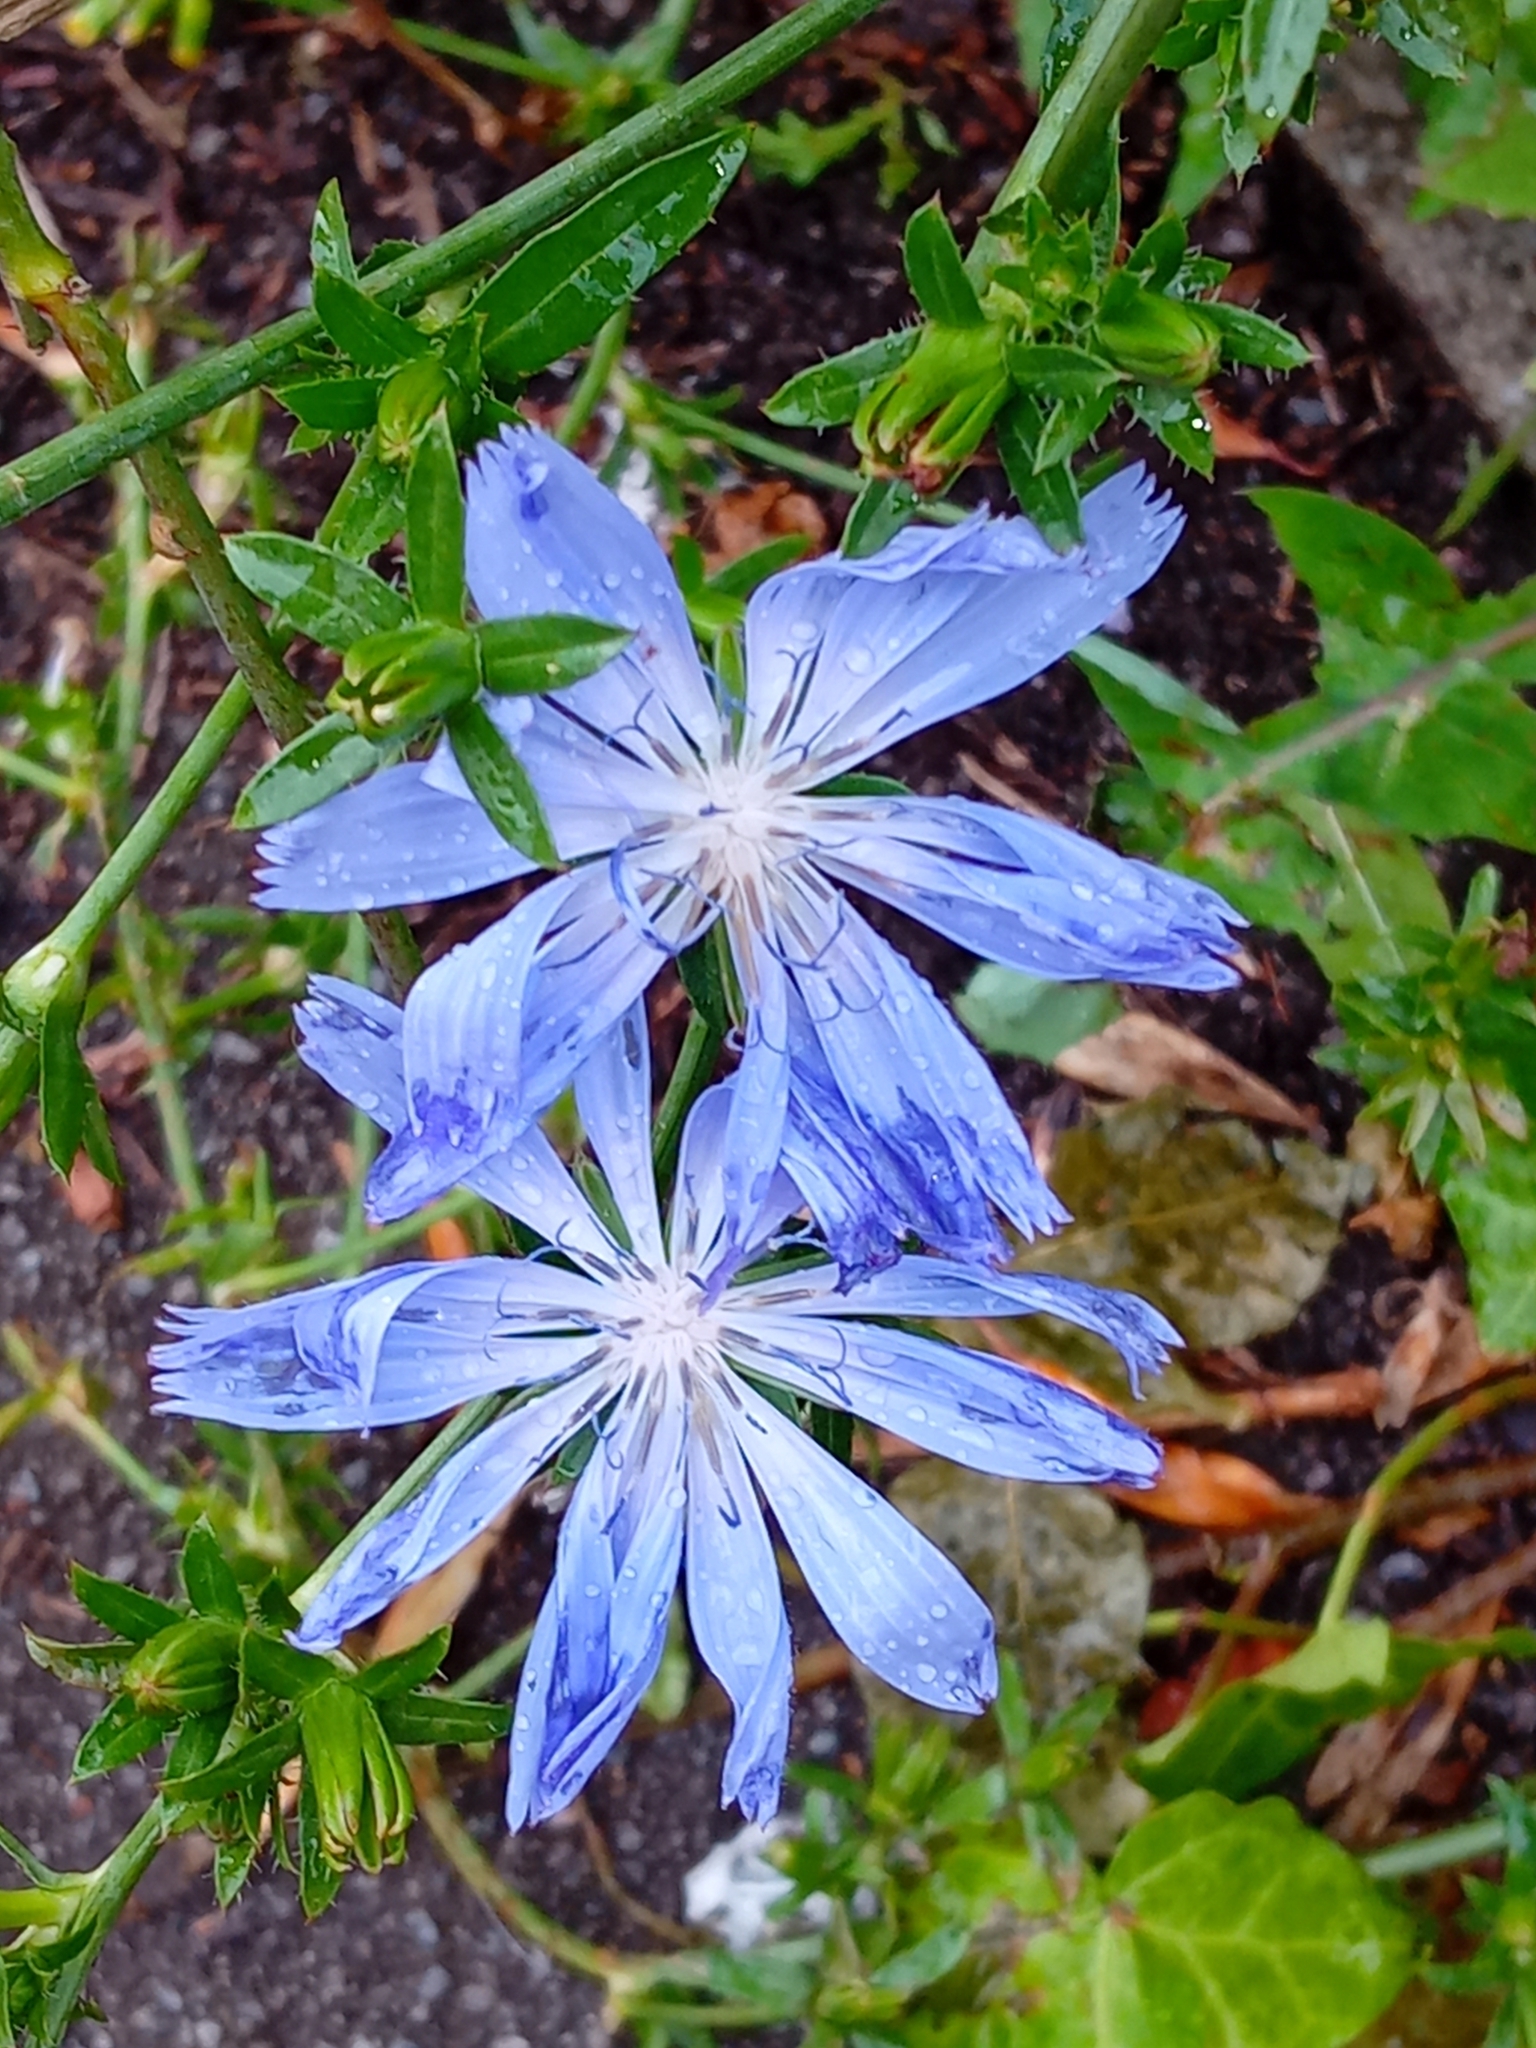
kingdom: Plantae
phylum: Tracheophyta
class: Magnoliopsida
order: Asterales
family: Asteraceae
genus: Cichorium
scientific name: Cichorium intybus
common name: Chicory
